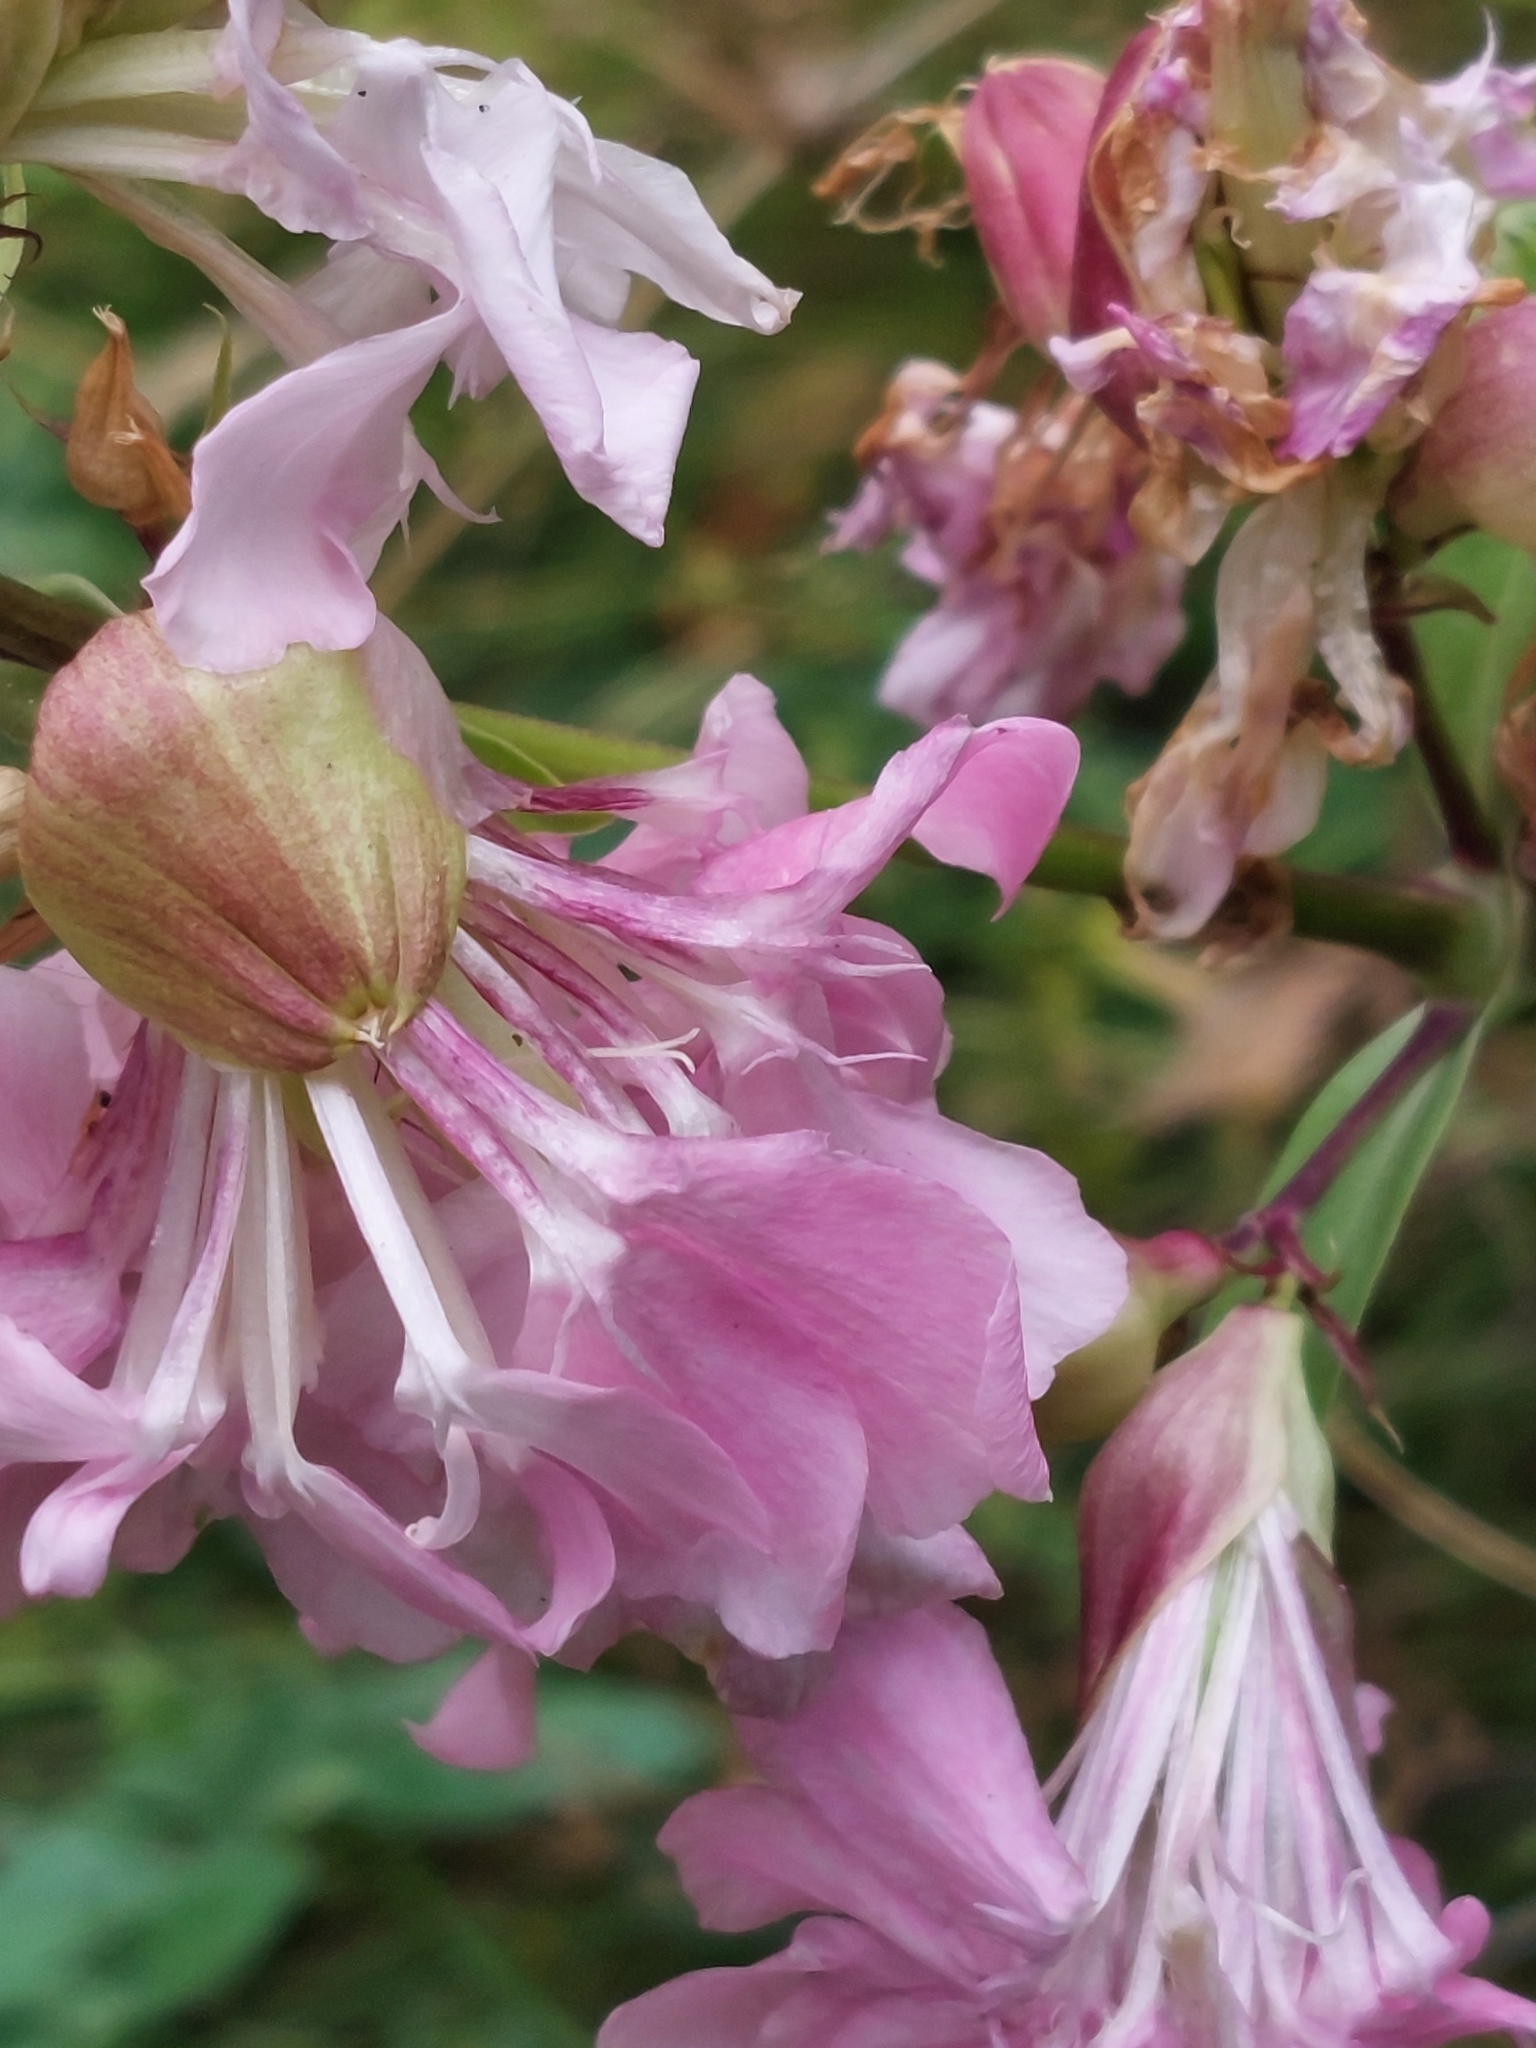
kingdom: Plantae
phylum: Tracheophyta
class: Magnoliopsida
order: Caryophyllales
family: Caryophyllaceae
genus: Saponaria
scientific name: Saponaria officinalis
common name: Soapwort
